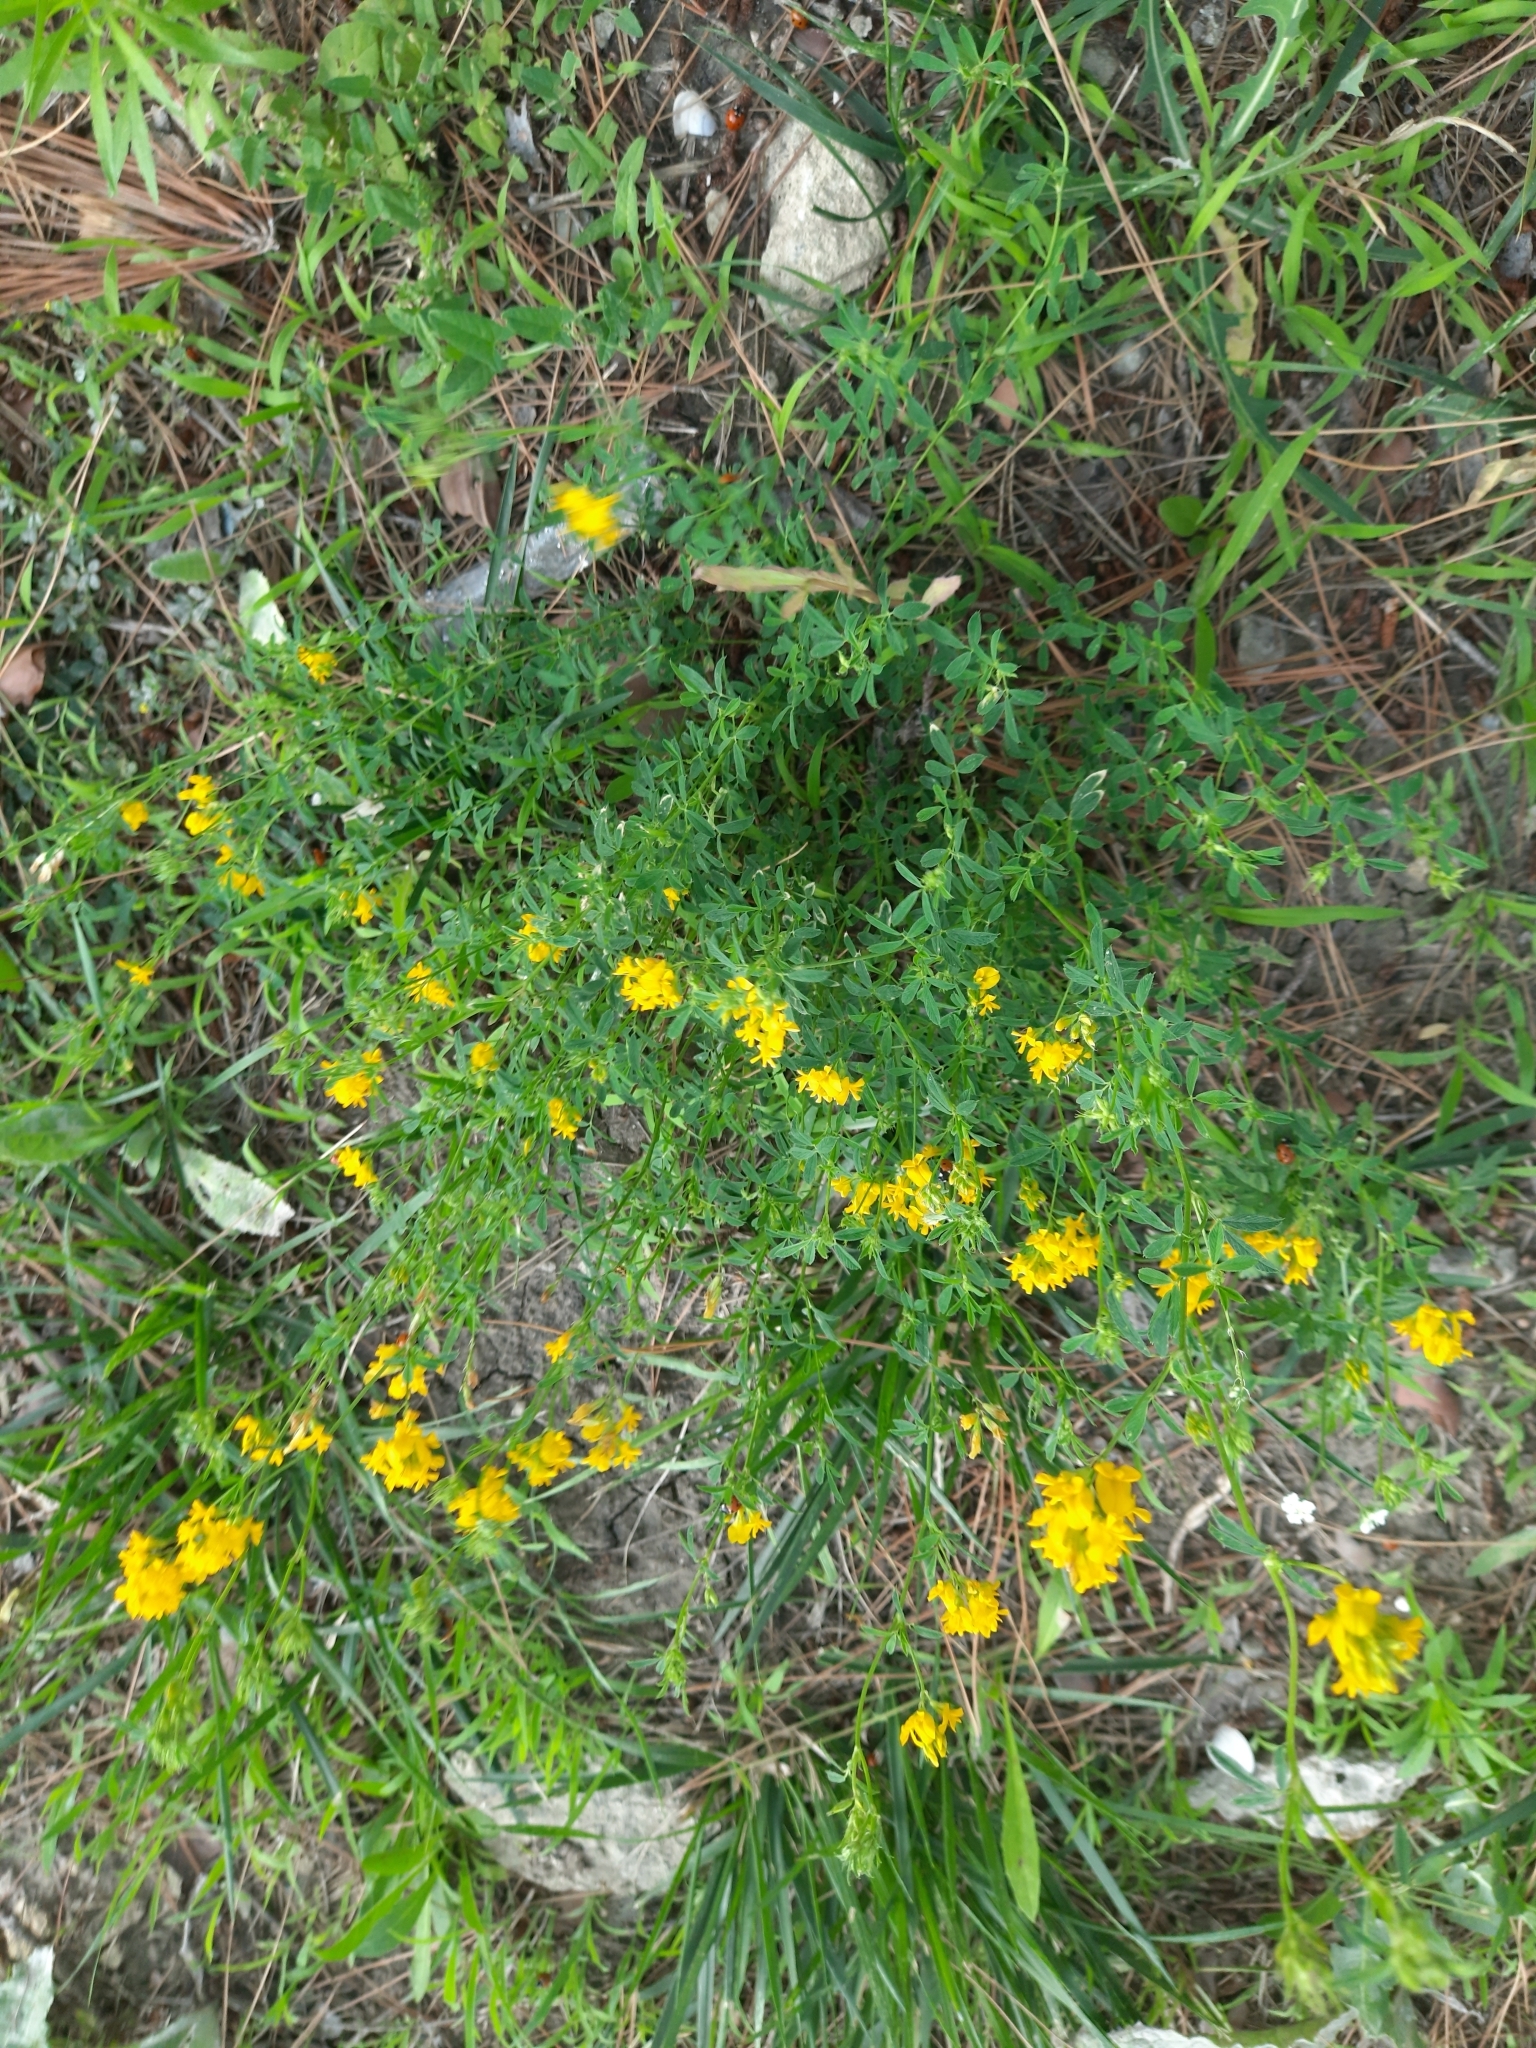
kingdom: Plantae
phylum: Tracheophyta
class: Magnoliopsida
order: Fabales
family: Fabaceae
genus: Medicago
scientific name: Medicago falcata
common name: Sickle medick
